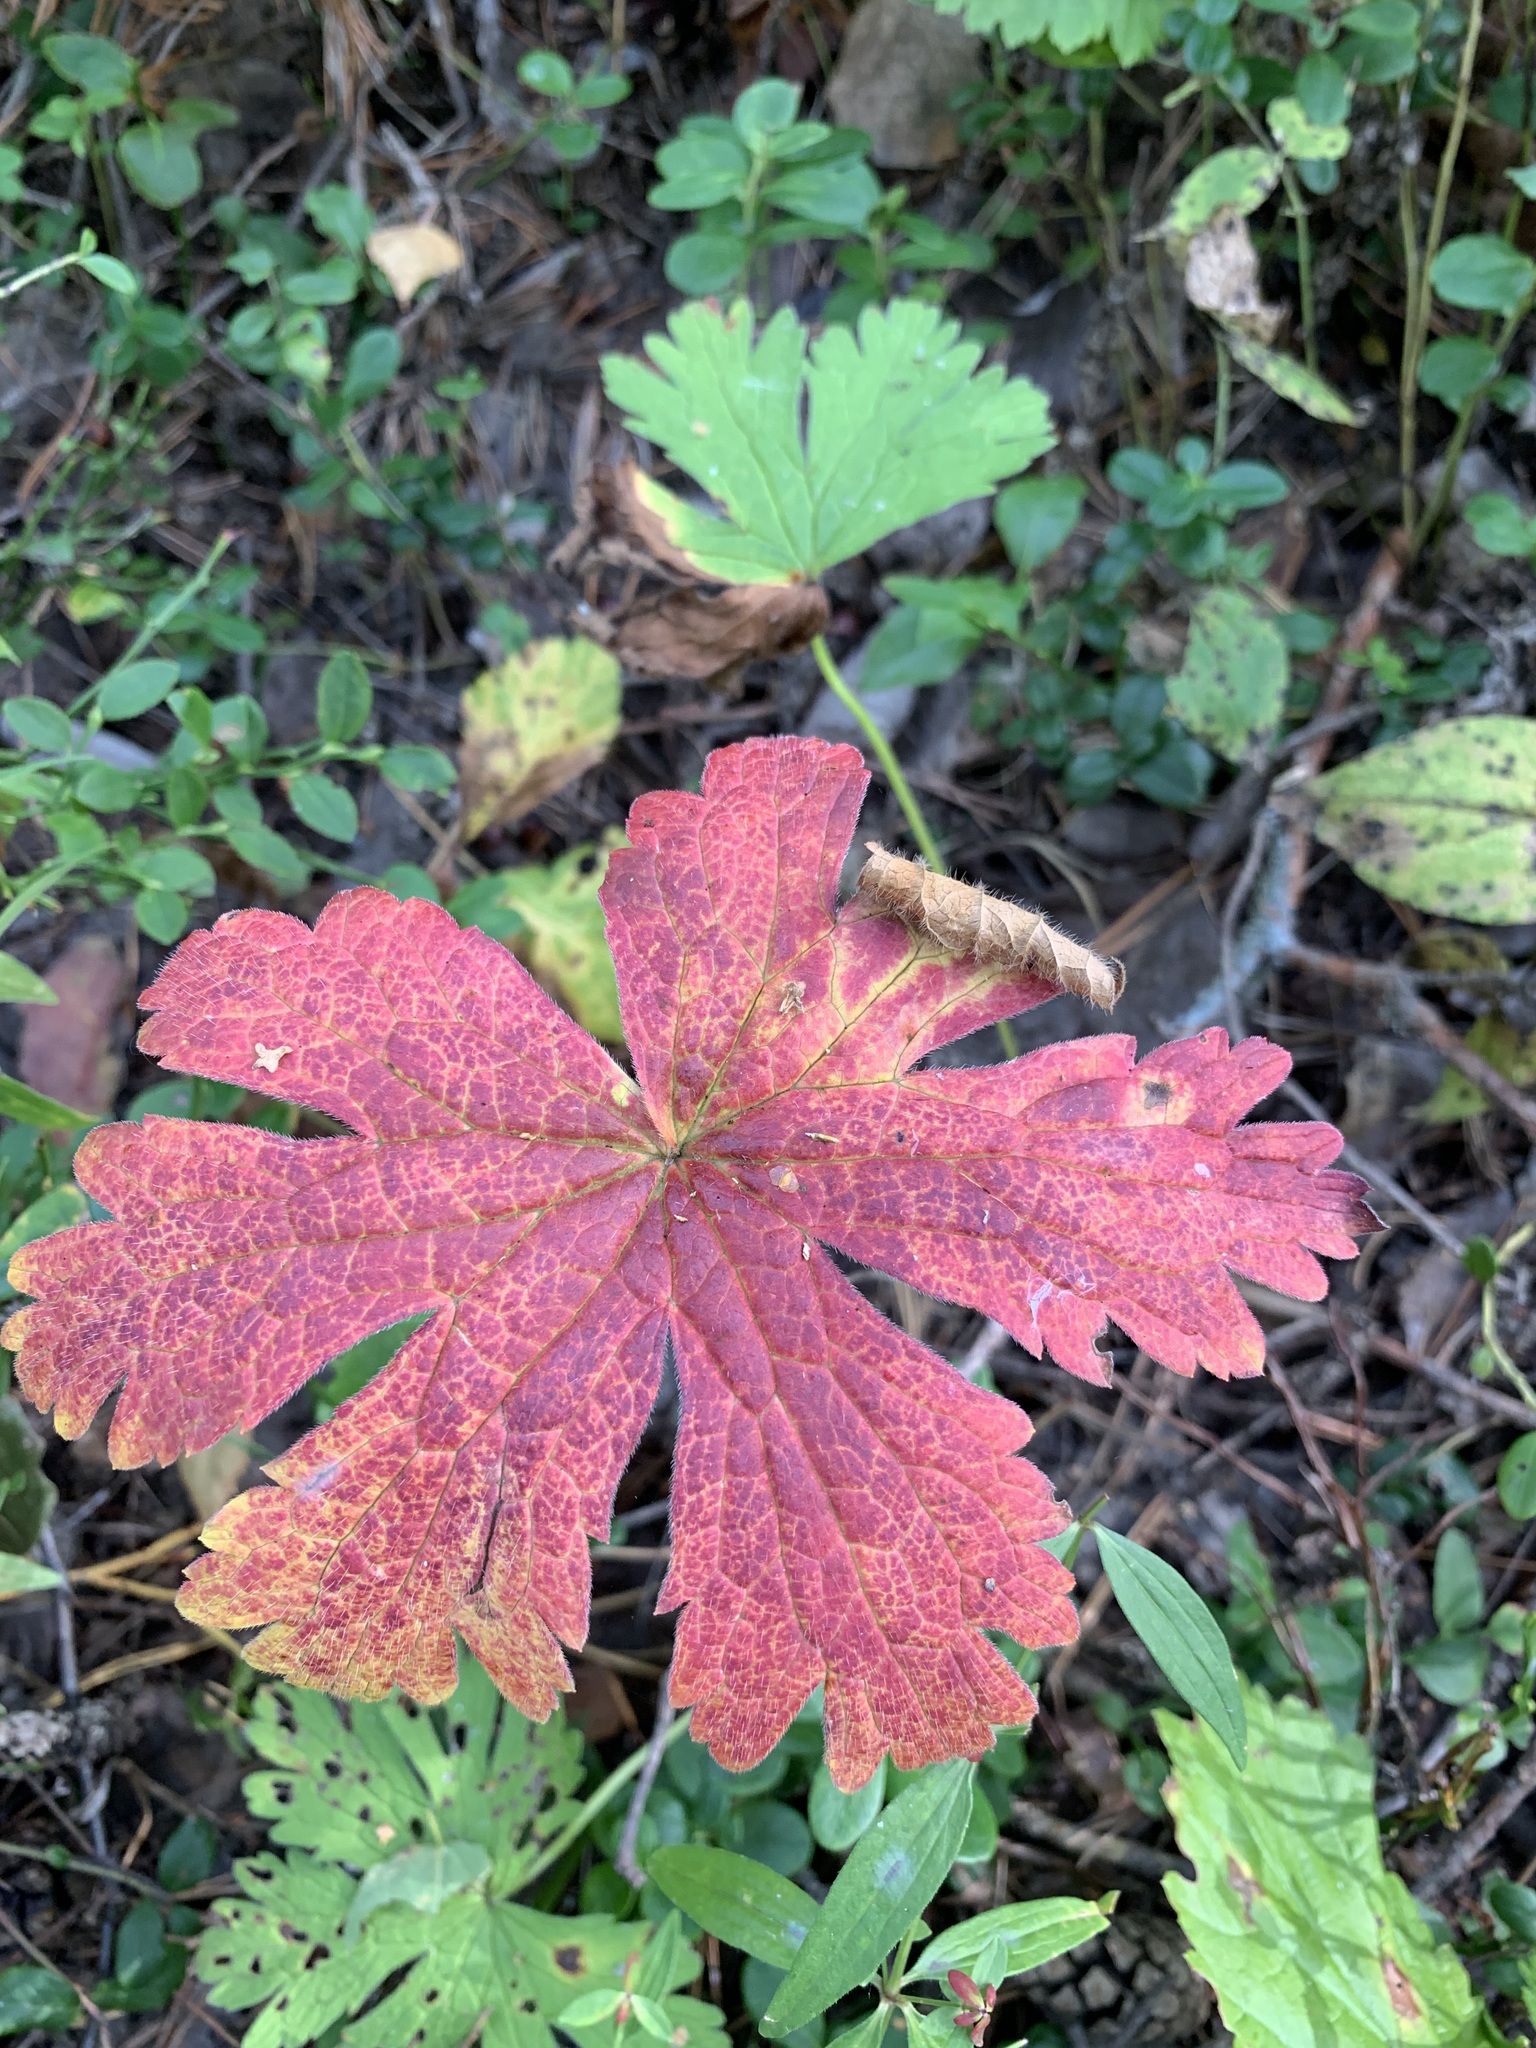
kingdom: Plantae
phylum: Tracheophyta
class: Magnoliopsida
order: Geraniales
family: Geraniaceae
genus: Geranium
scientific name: Geranium sylvaticum
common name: Wood crane's-bill
